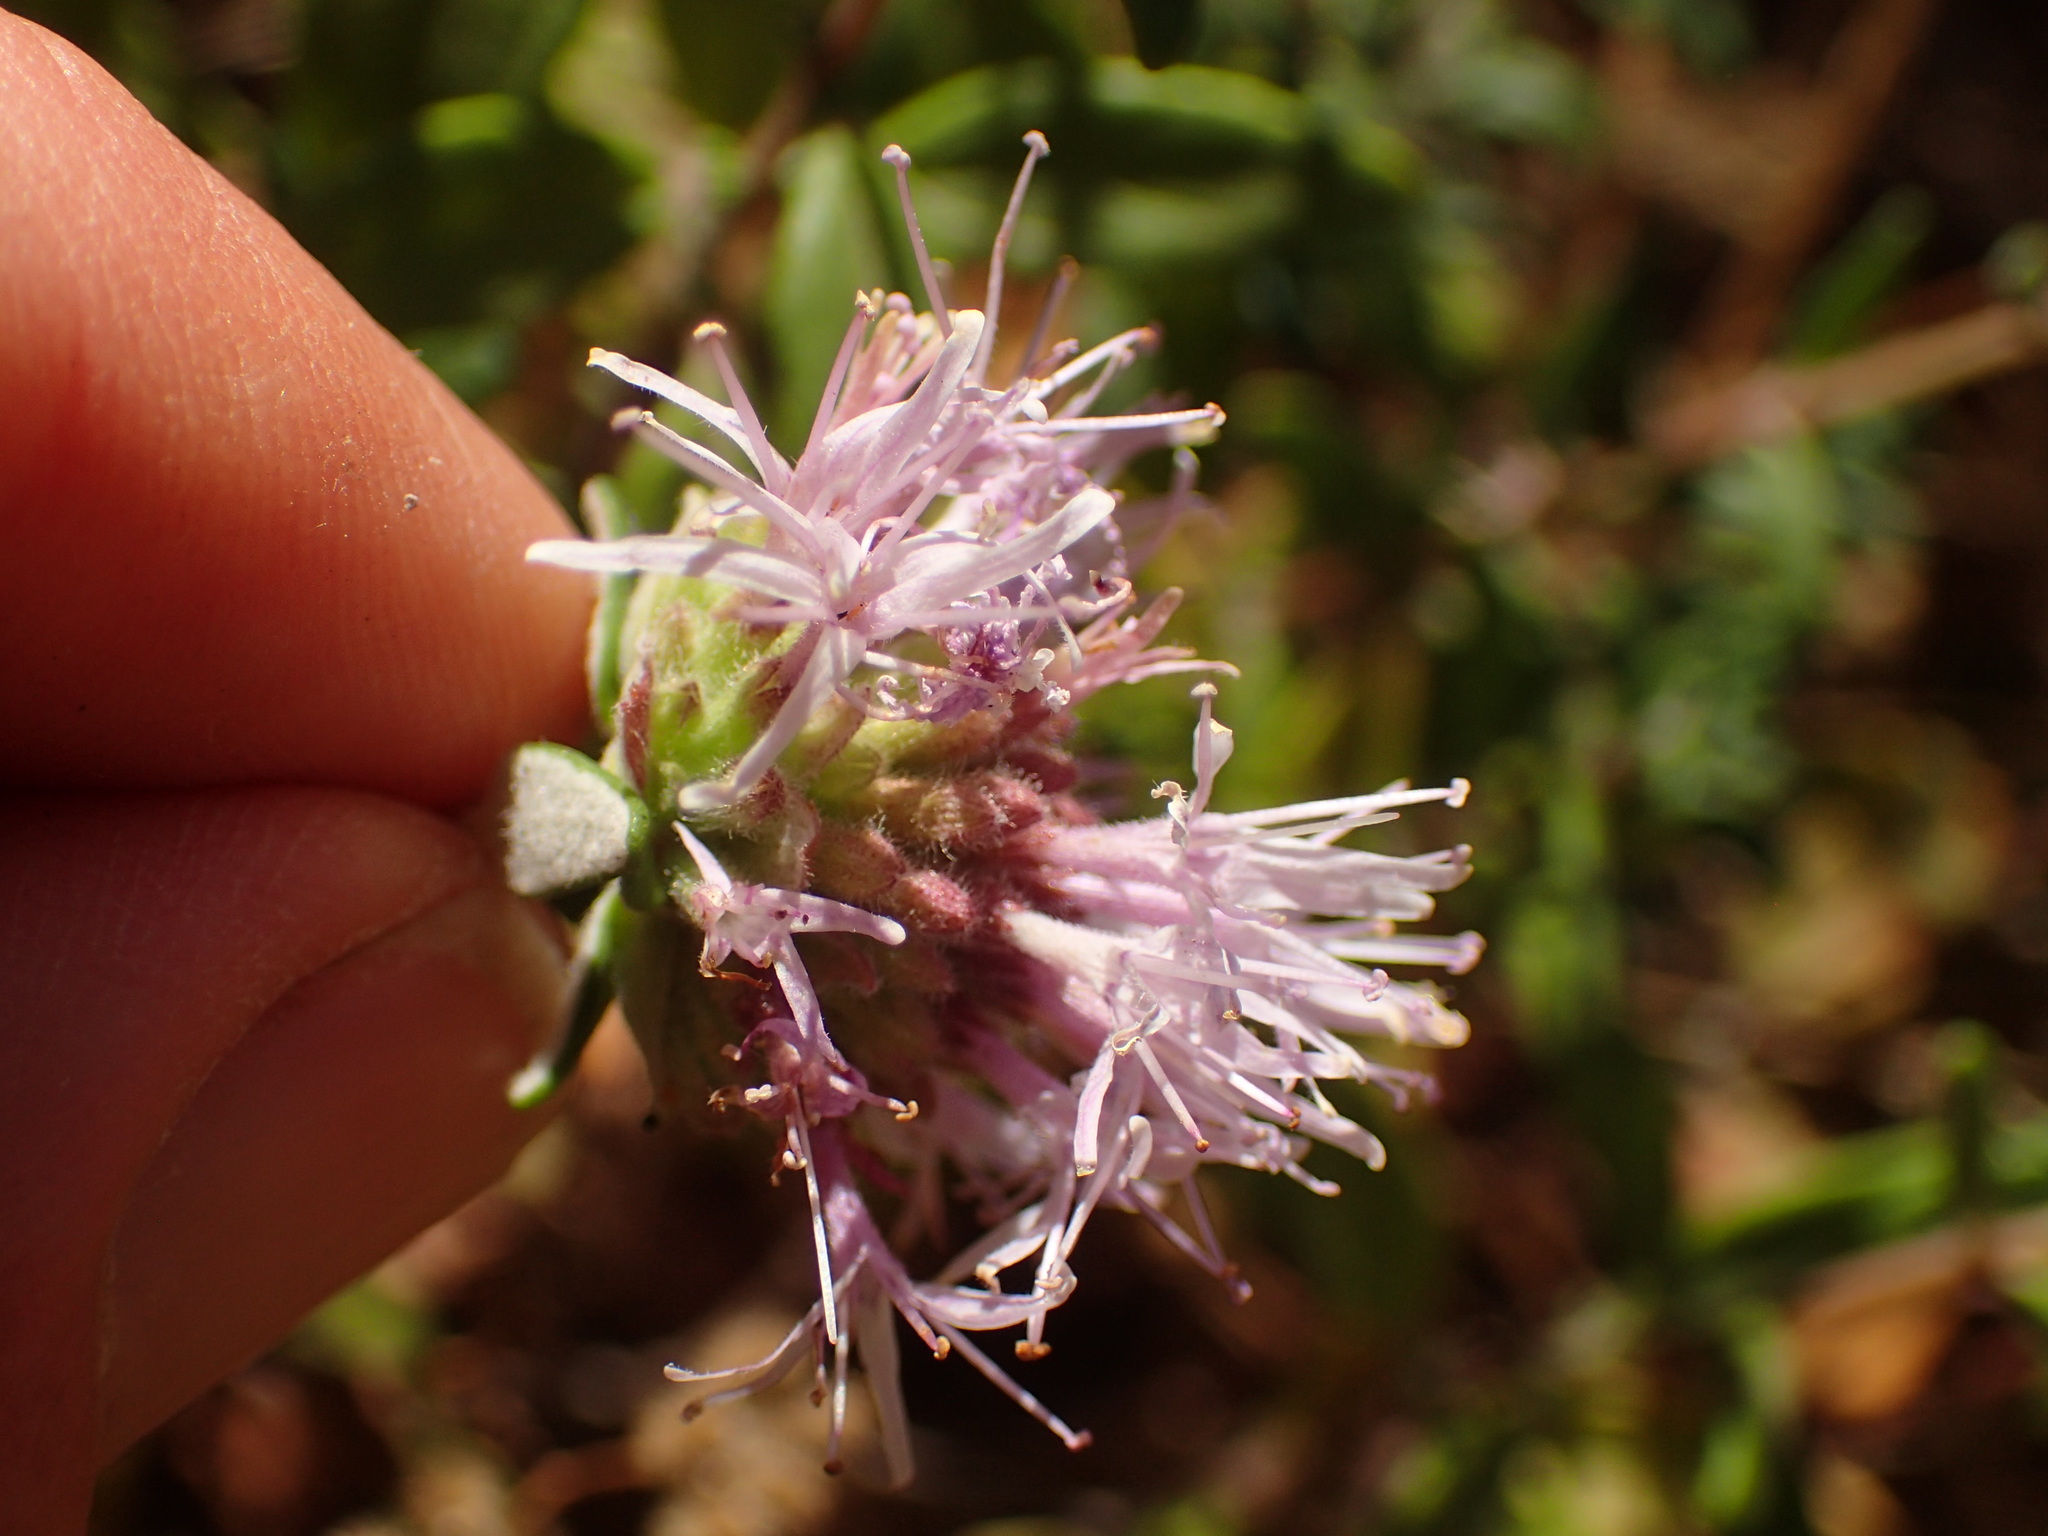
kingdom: Plantae
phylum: Tracheophyta
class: Magnoliopsida
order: Lamiales
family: Lamiaceae
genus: Monardella
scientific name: Monardella hypoleuca
